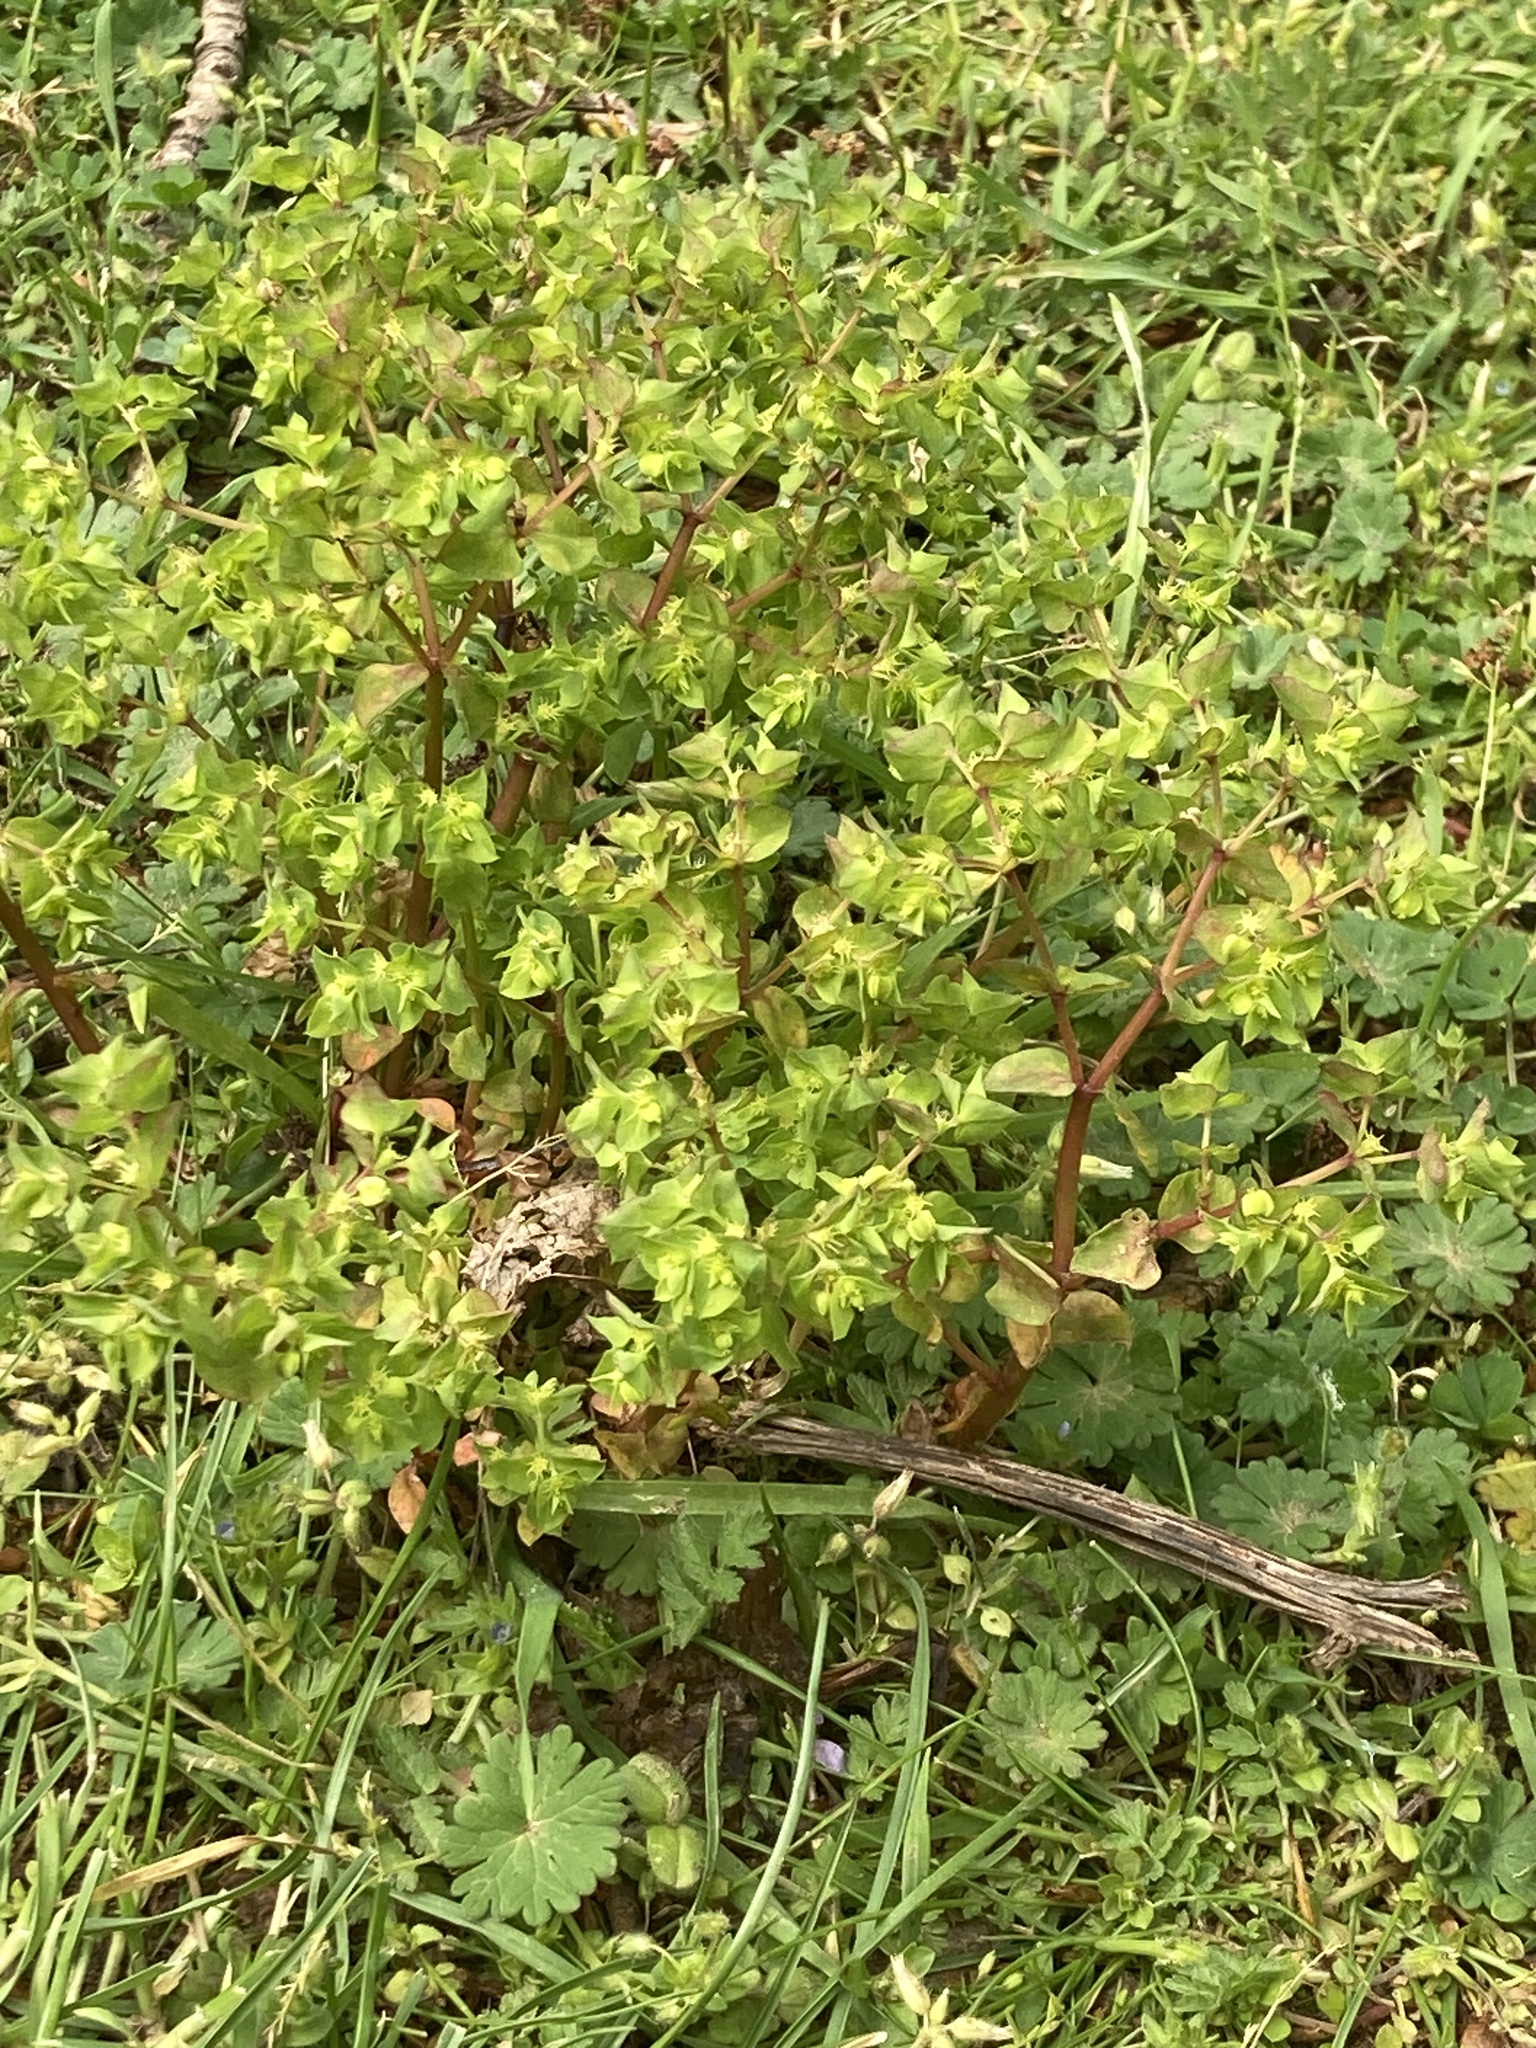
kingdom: Plantae
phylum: Tracheophyta
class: Magnoliopsida
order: Malpighiales
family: Euphorbiaceae
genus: Euphorbia
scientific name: Euphorbia peplus
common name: Petty spurge
